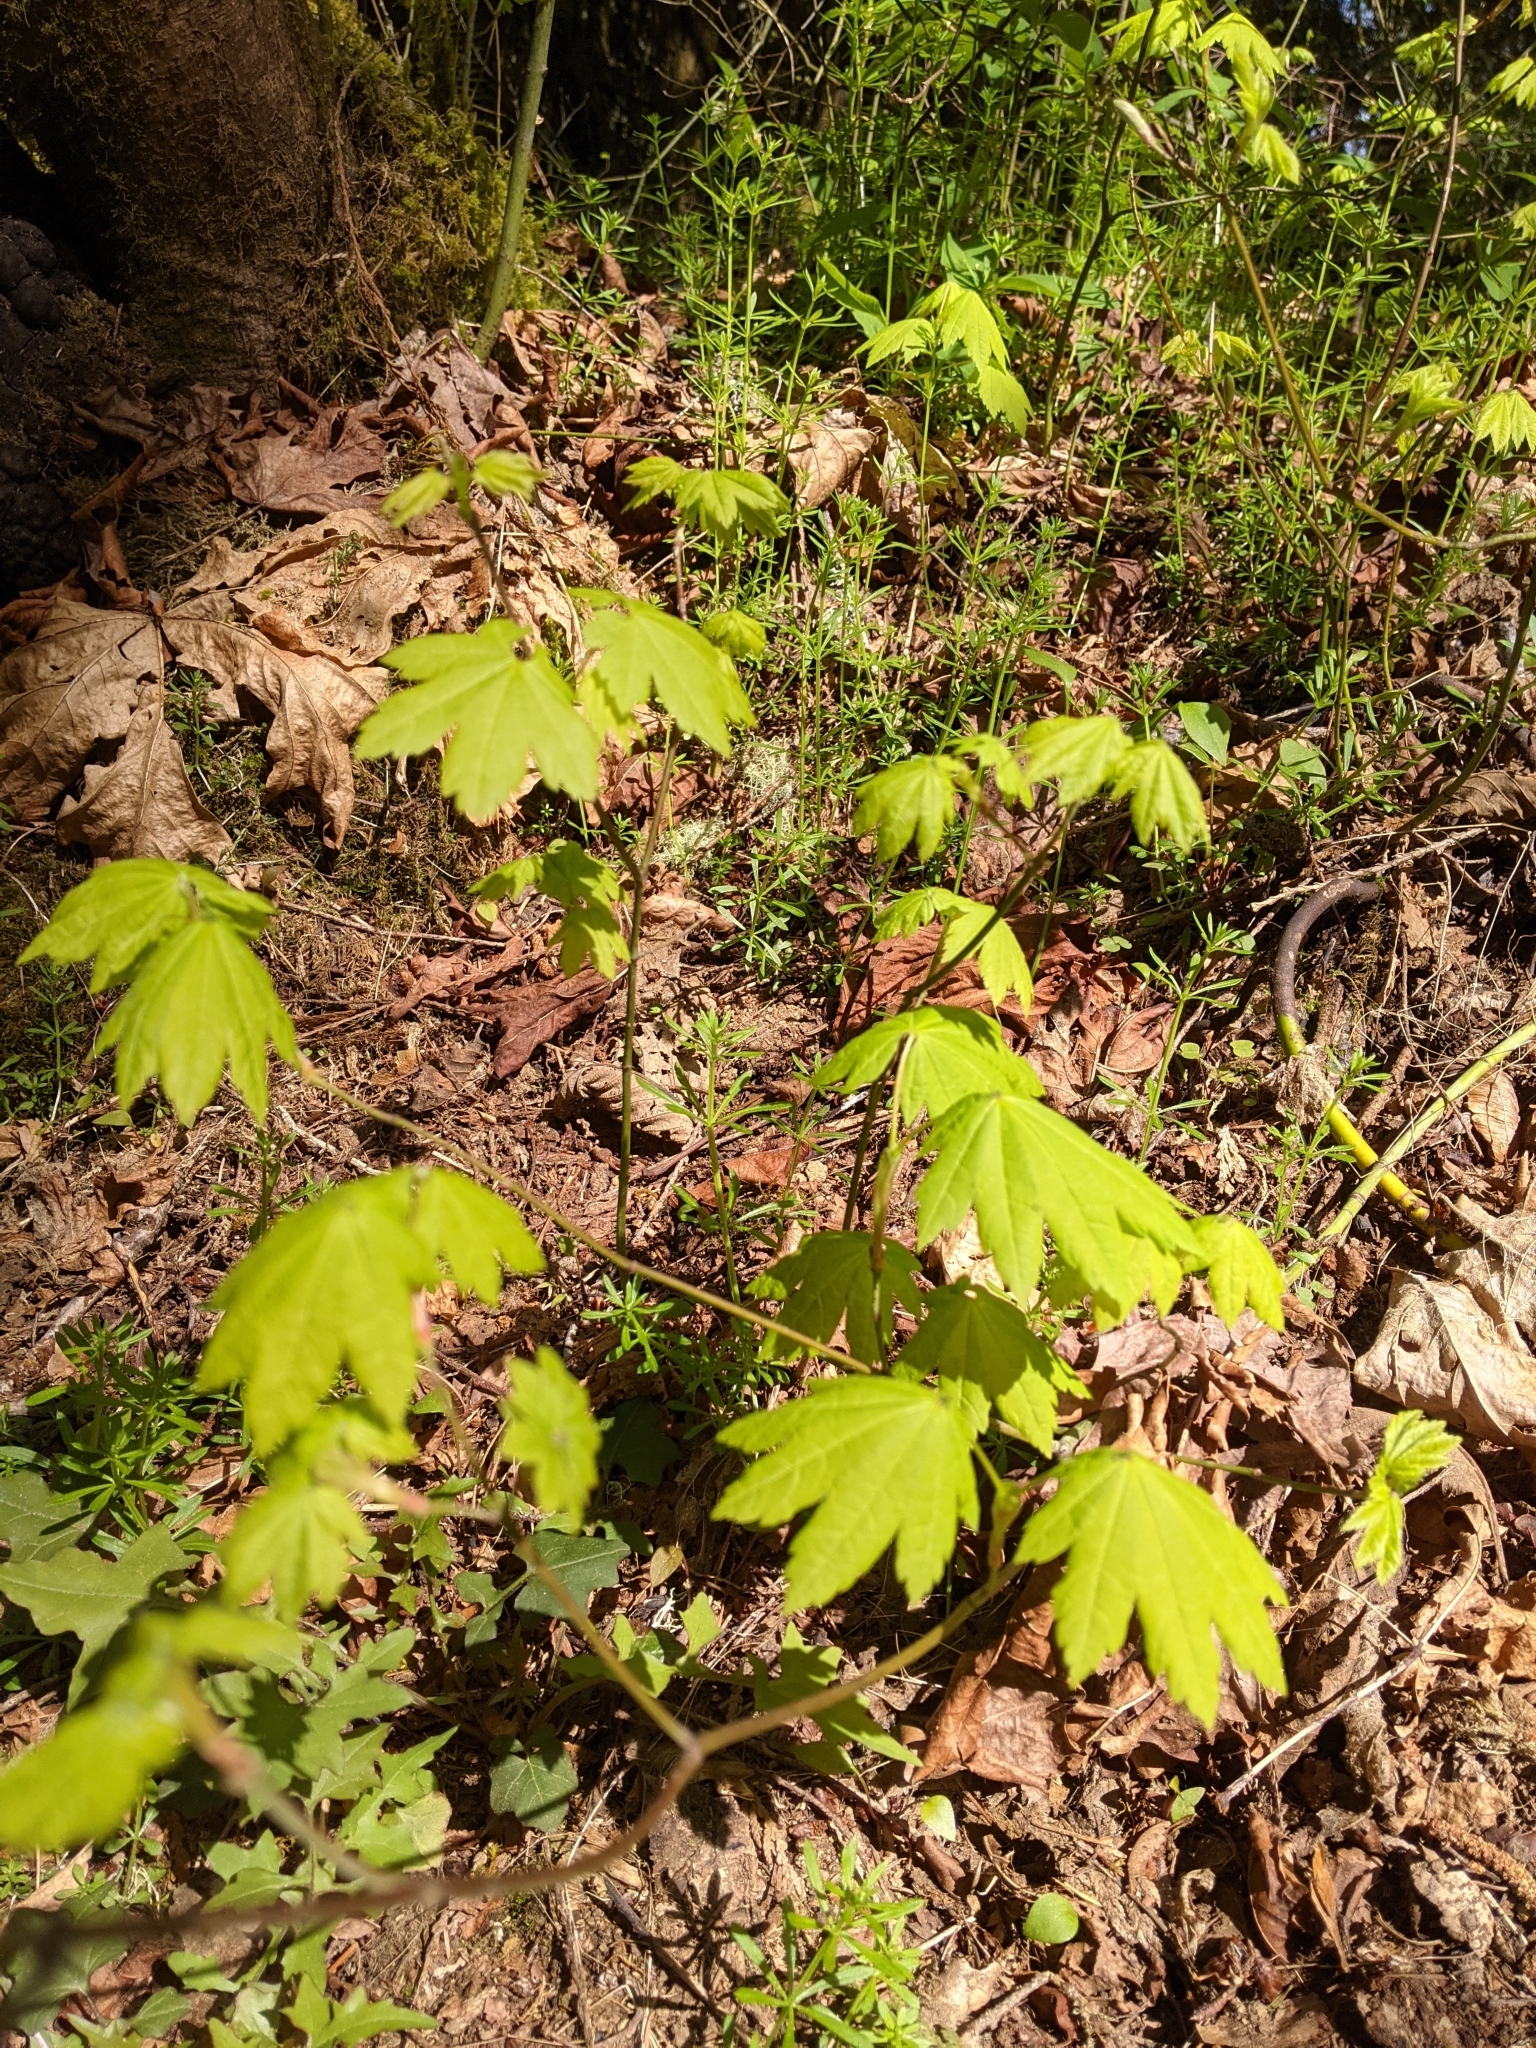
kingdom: Plantae
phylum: Tracheophyta
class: Magnoliopsida
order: Sapindales
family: Sapindaceae
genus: Acer
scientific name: Acer circinatum
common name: Vine maple
